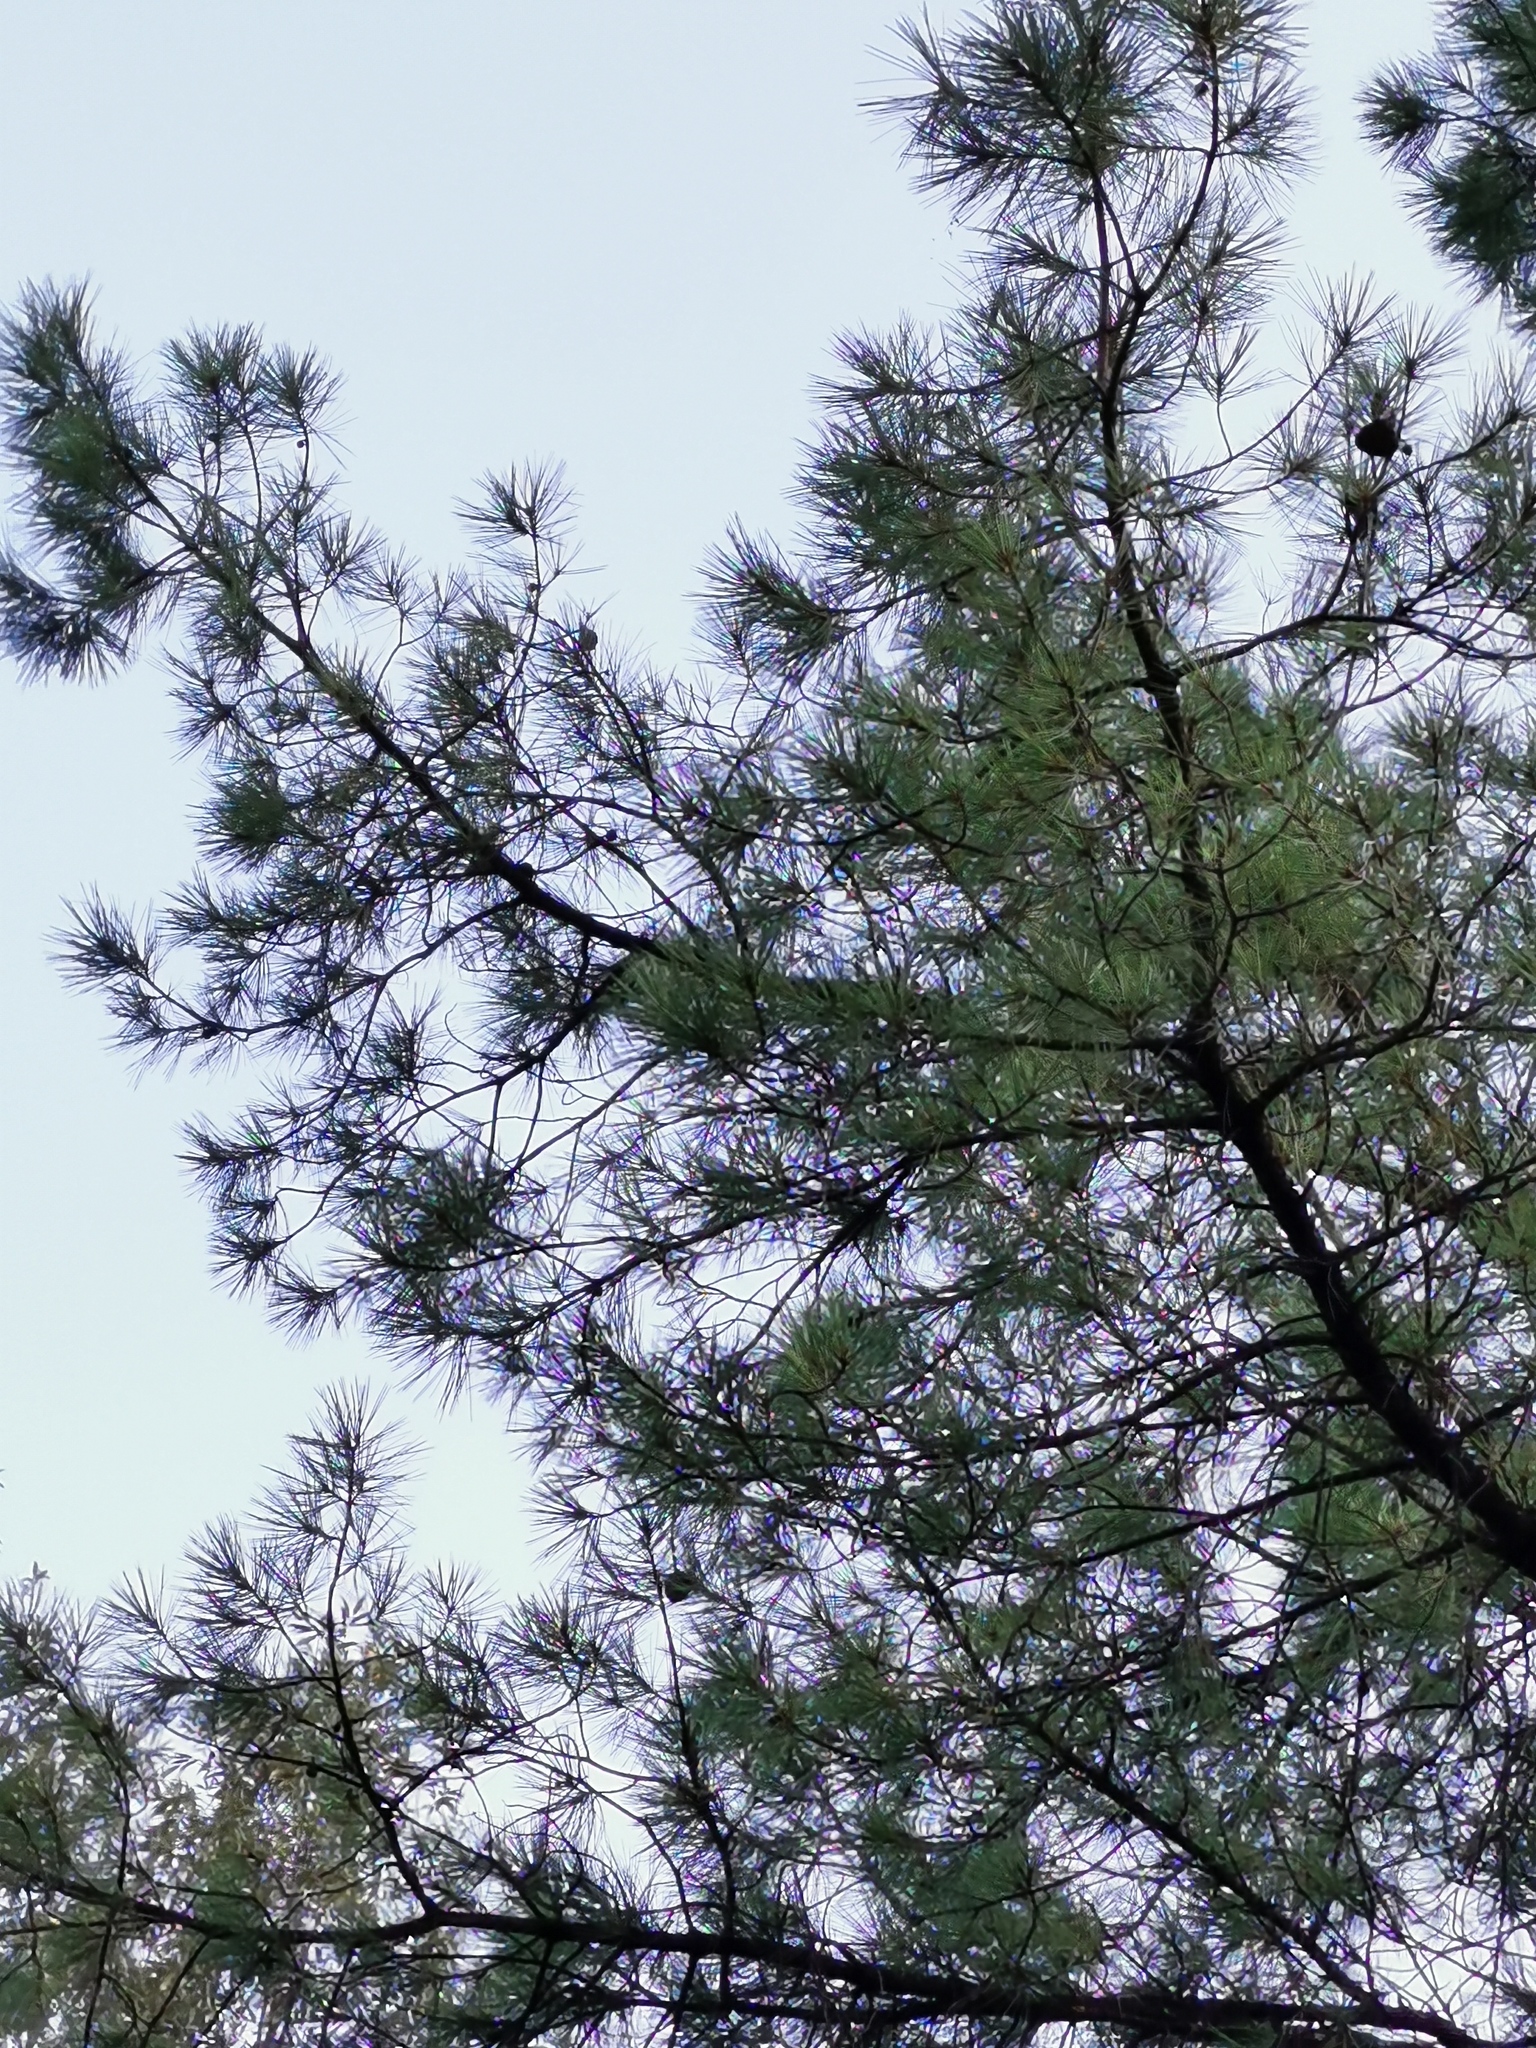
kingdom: Plantae
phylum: Tracheophyta
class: Pinopsida
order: Pinales
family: Pinaceae
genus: Pinus
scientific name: Pinus herrerae
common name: Herrera's pine
